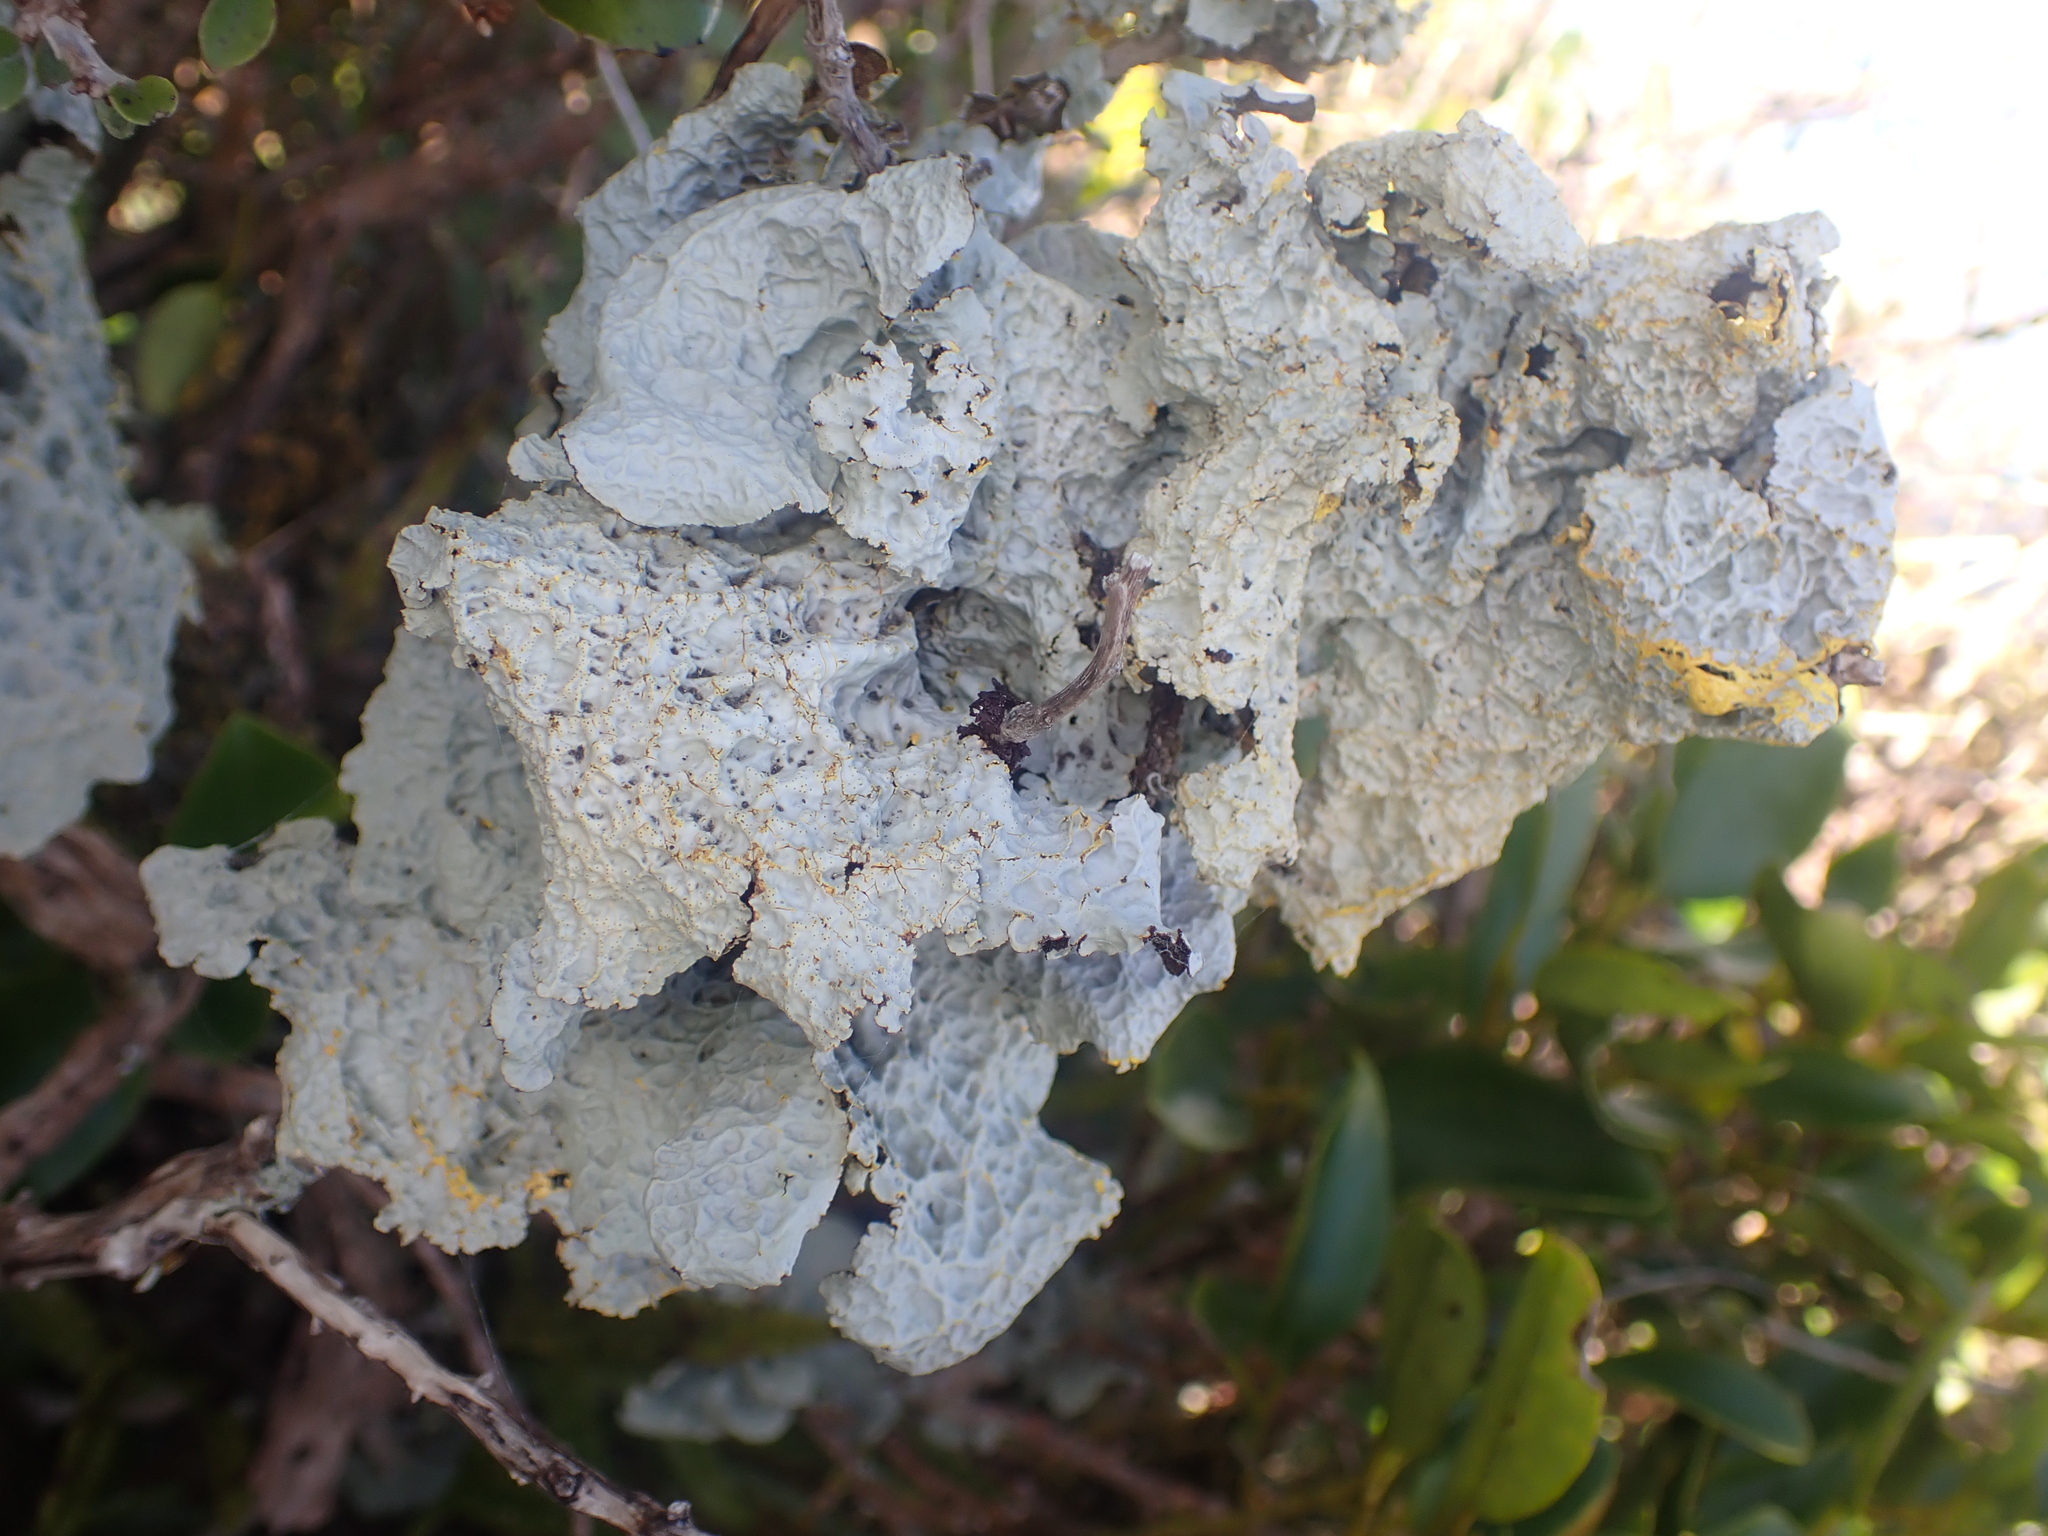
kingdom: Fungi
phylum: Ascomycota
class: Lecanoromycetes
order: Peltigerales
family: Lobariaceae
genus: Yarrumia
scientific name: Yarrumia coronata
